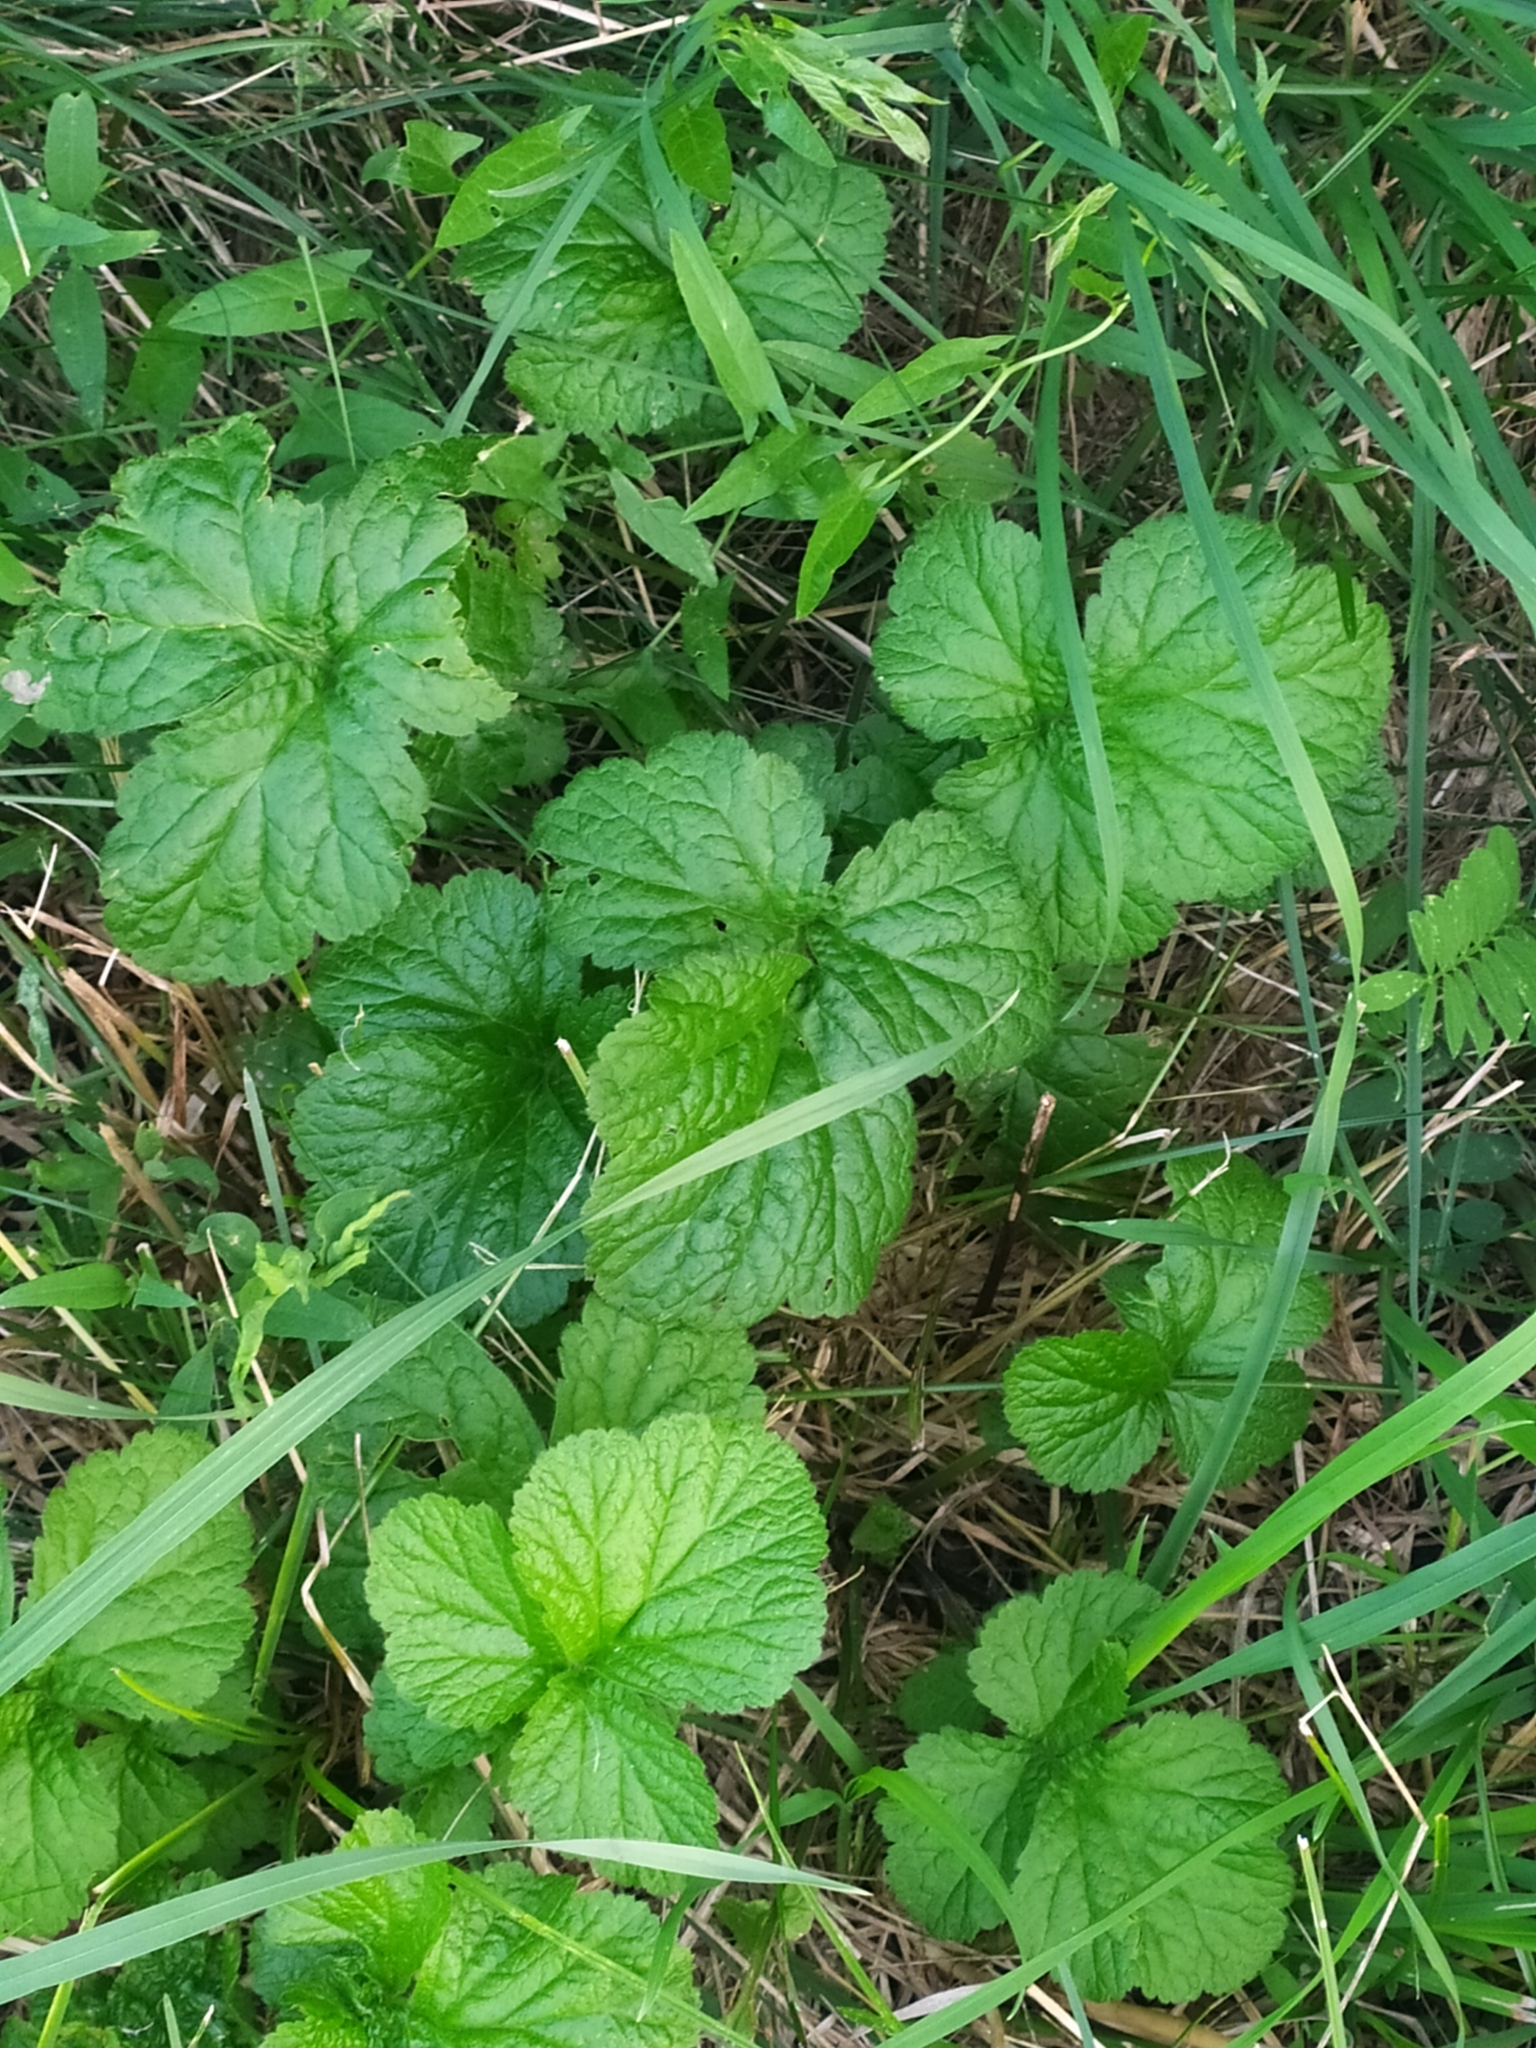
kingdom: Plantae
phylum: Tracheophyta
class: Magnoliopsida
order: Rosales
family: Rosaceae
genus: Geum
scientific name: Geum
